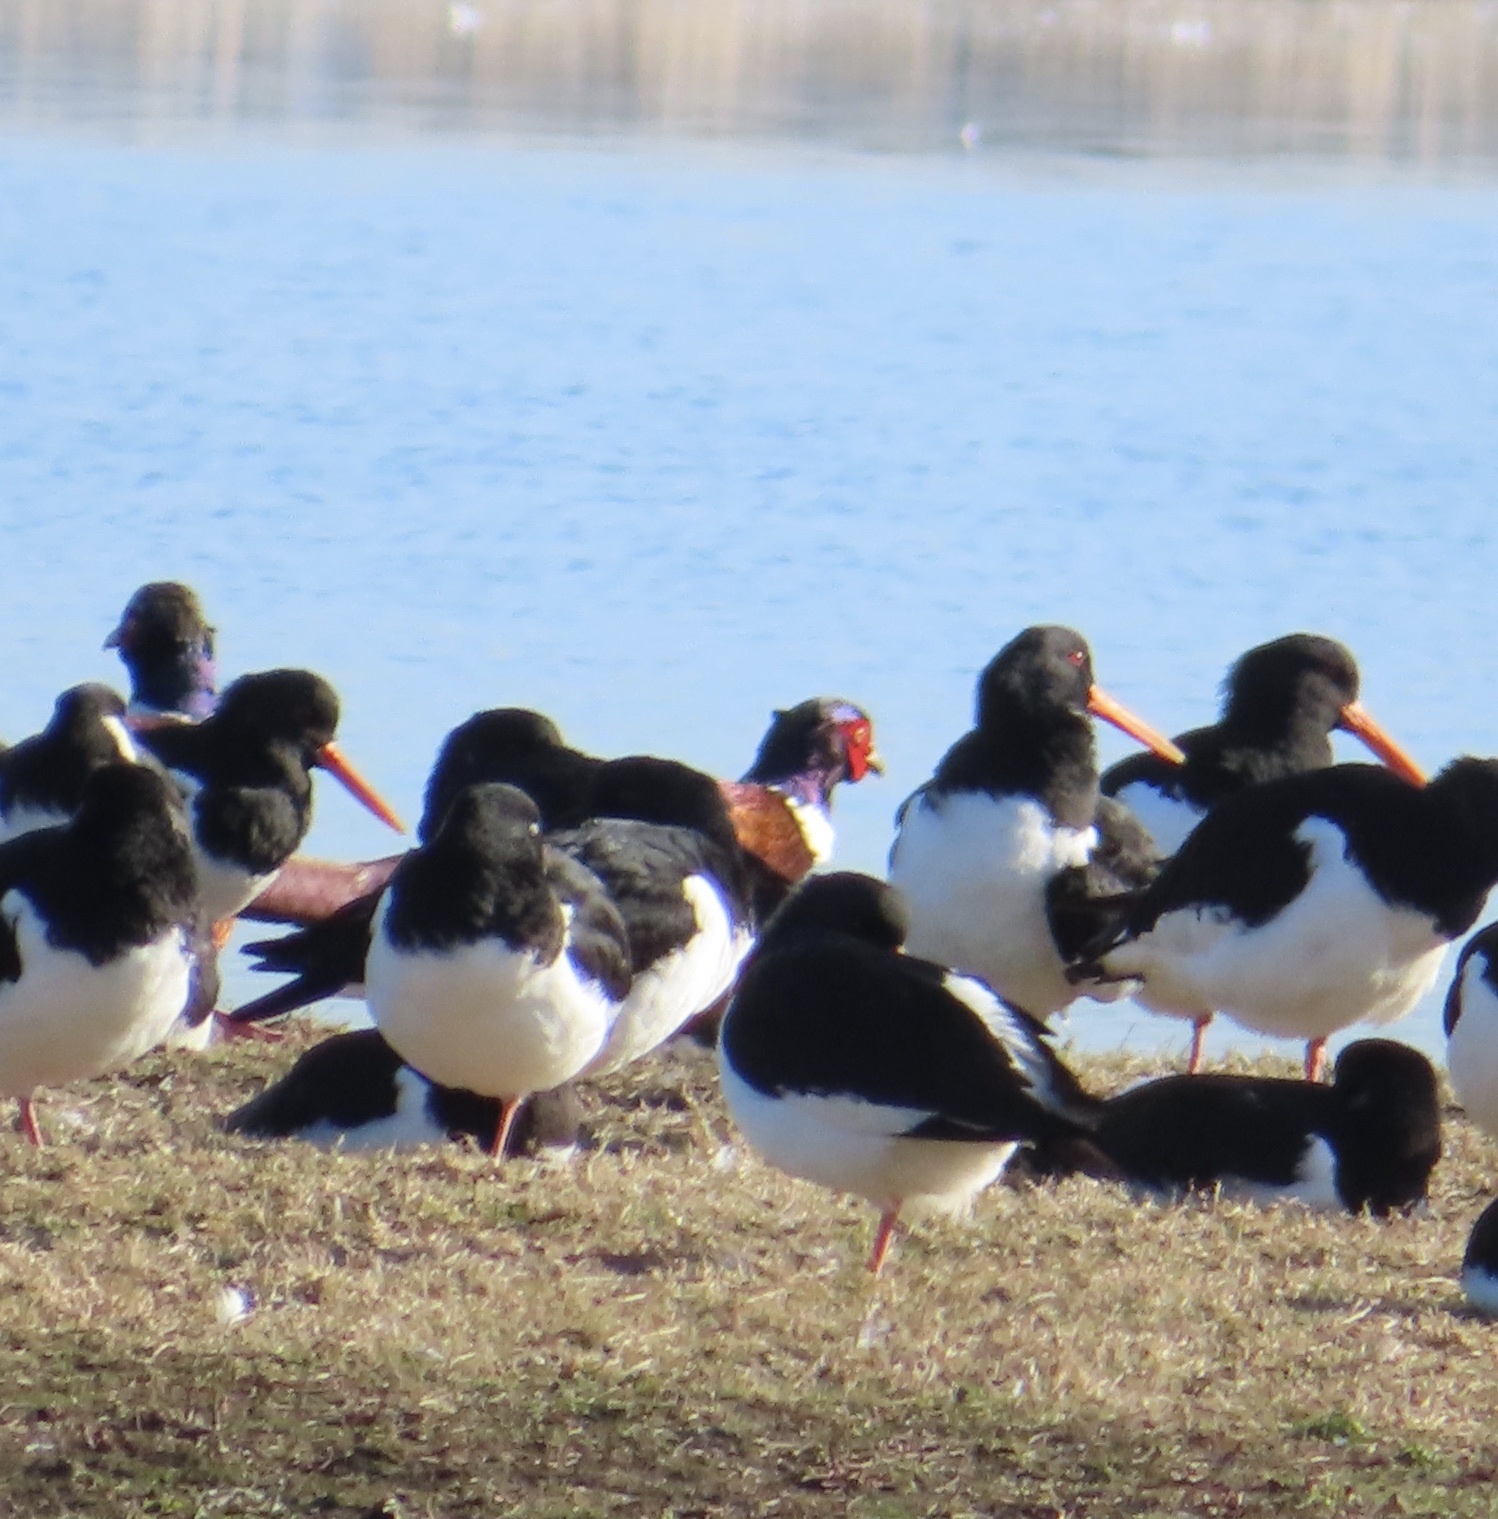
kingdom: Animalia
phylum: Chordata
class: Aves
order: Galliformes
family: Phasianidae
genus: Phasianus
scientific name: Phasianus colchicus
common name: Common pheasant
